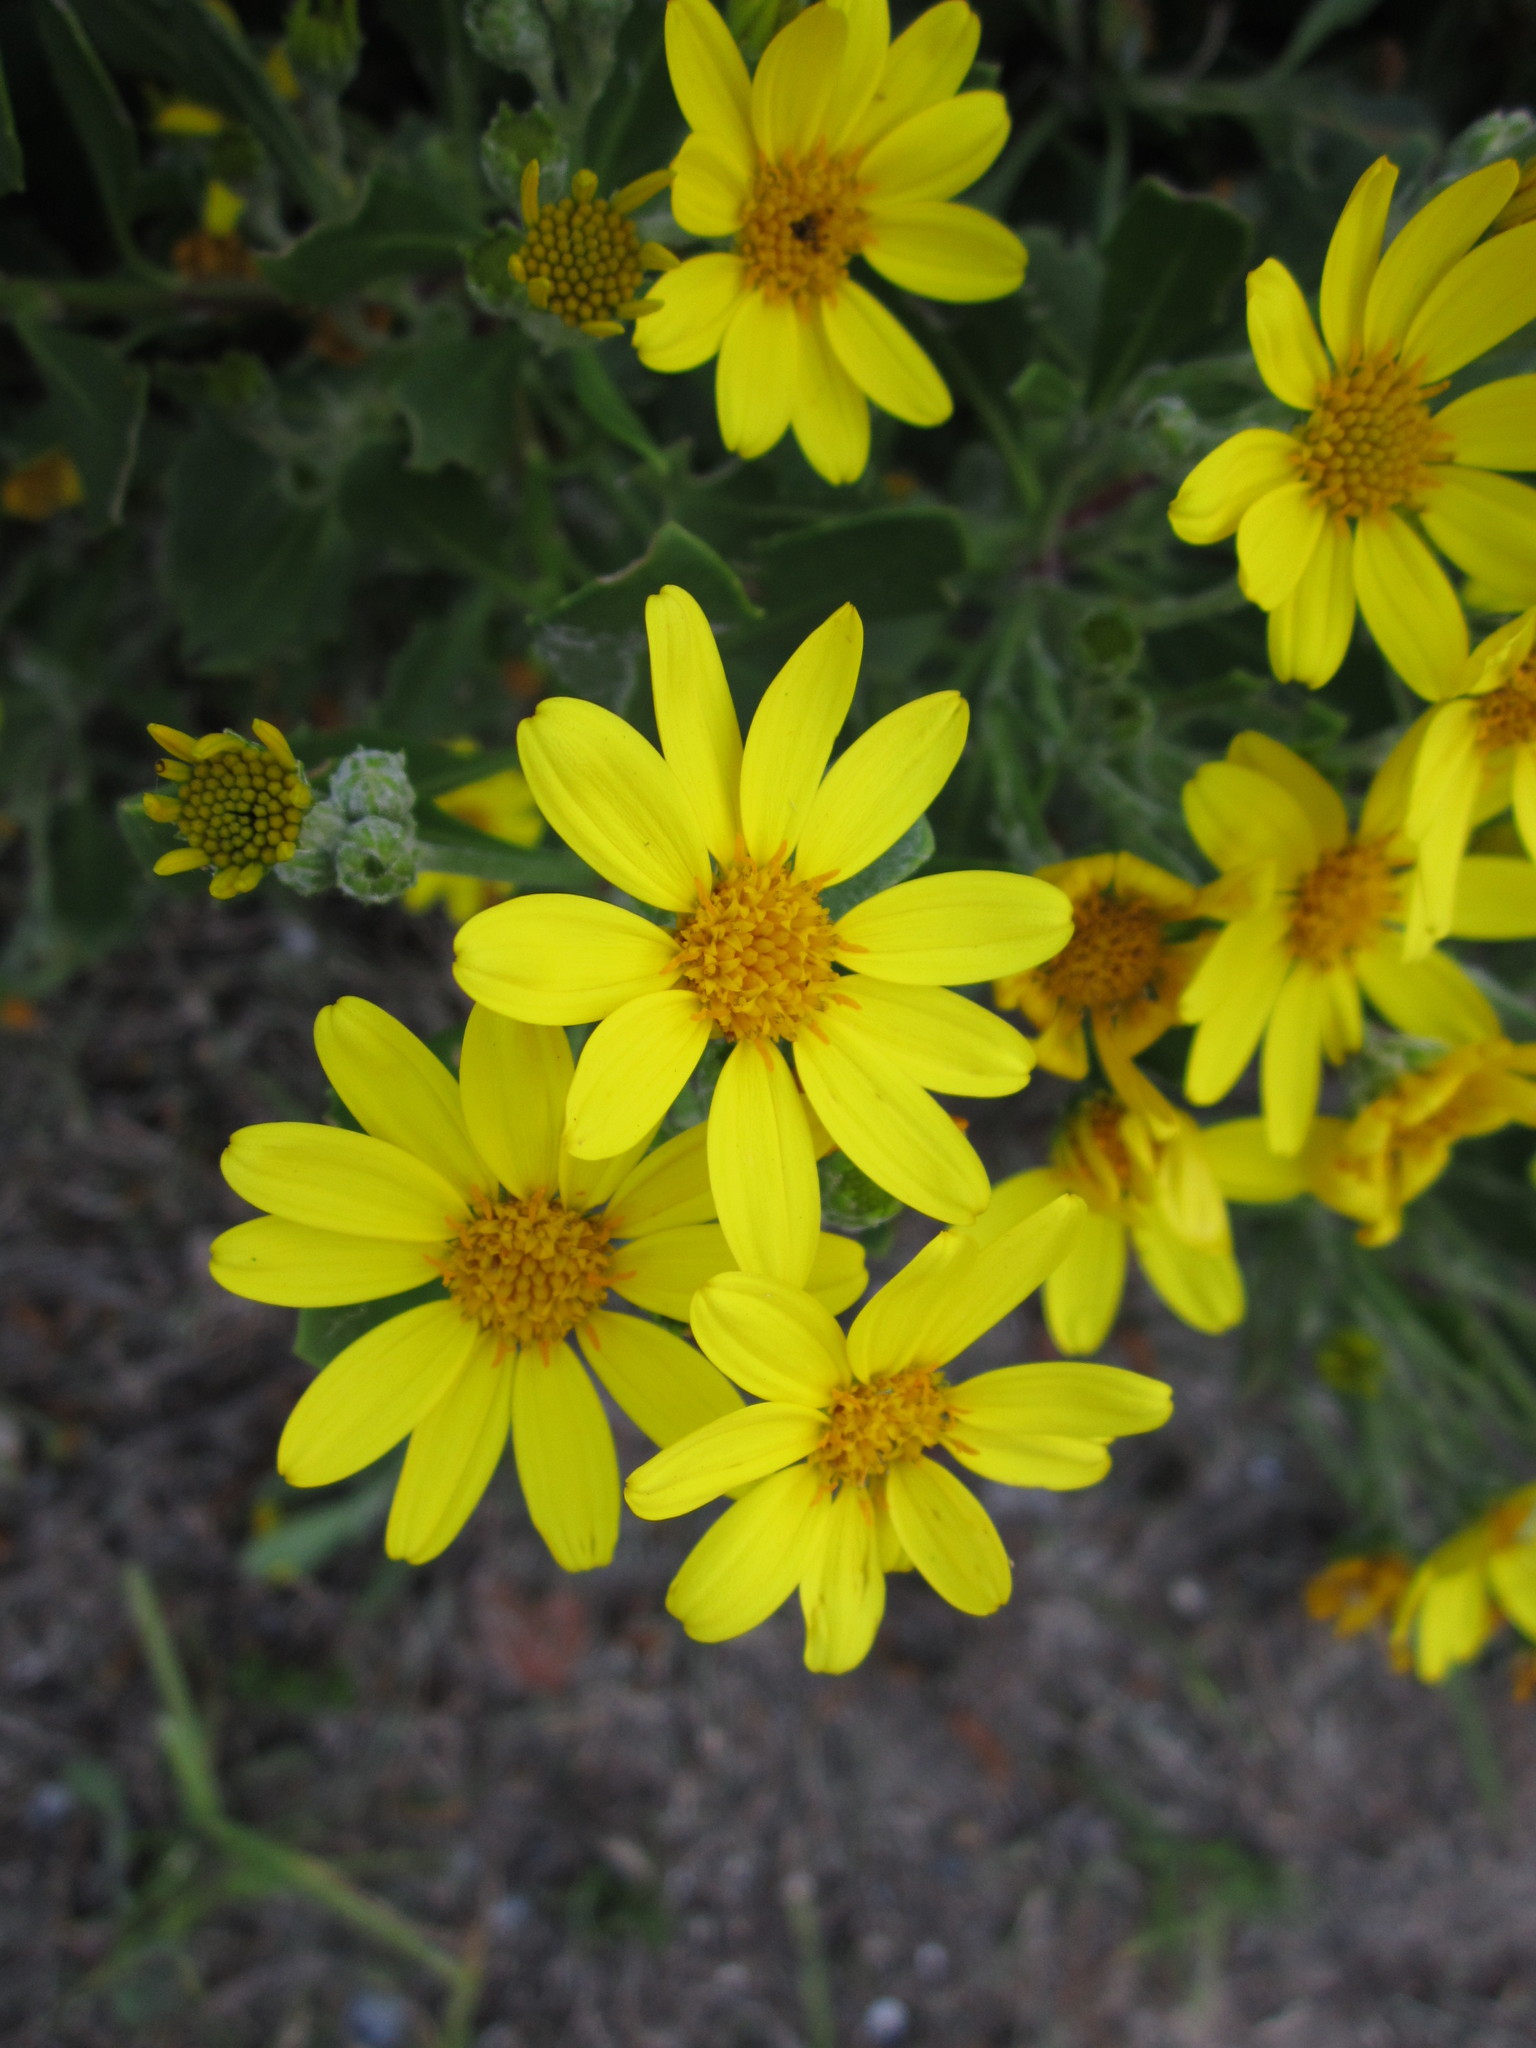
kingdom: Plantae
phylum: Tracheophyta
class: Magnoliopsida
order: Asterales
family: Asteraceae
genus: Osteospermum
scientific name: Osteospermum moniliferum
